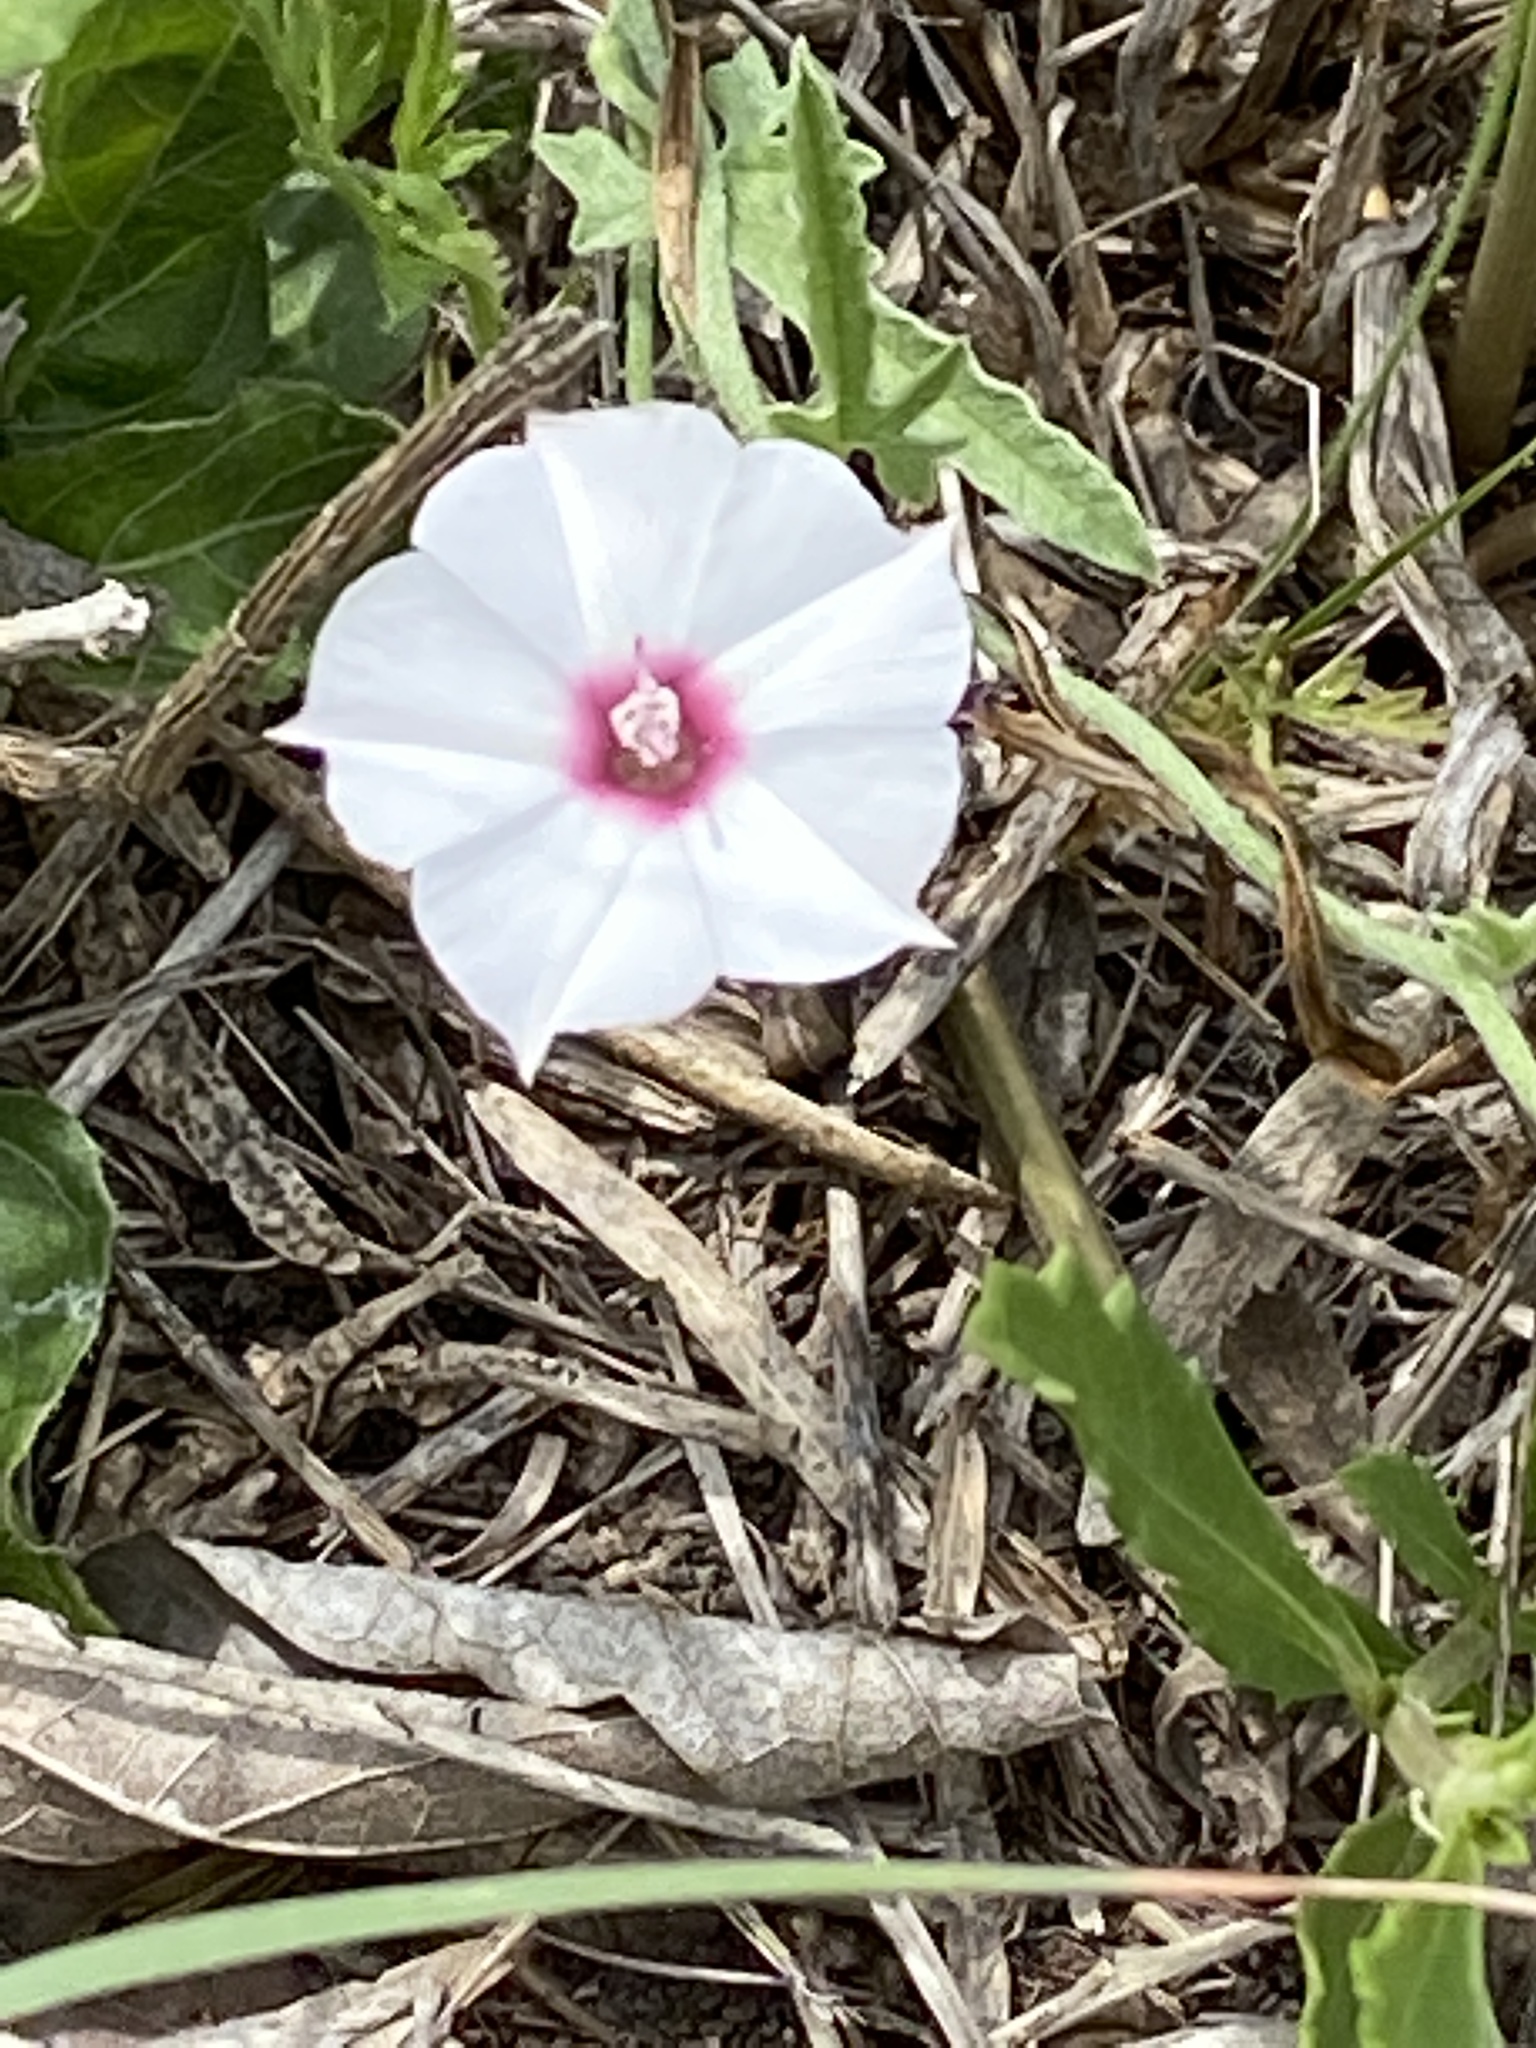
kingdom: Plantae
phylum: Tracheophyta
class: Magnoliopsida
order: Solanales
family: Convolvulaceae
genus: Convolvulus
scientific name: Convolvulus equitans
